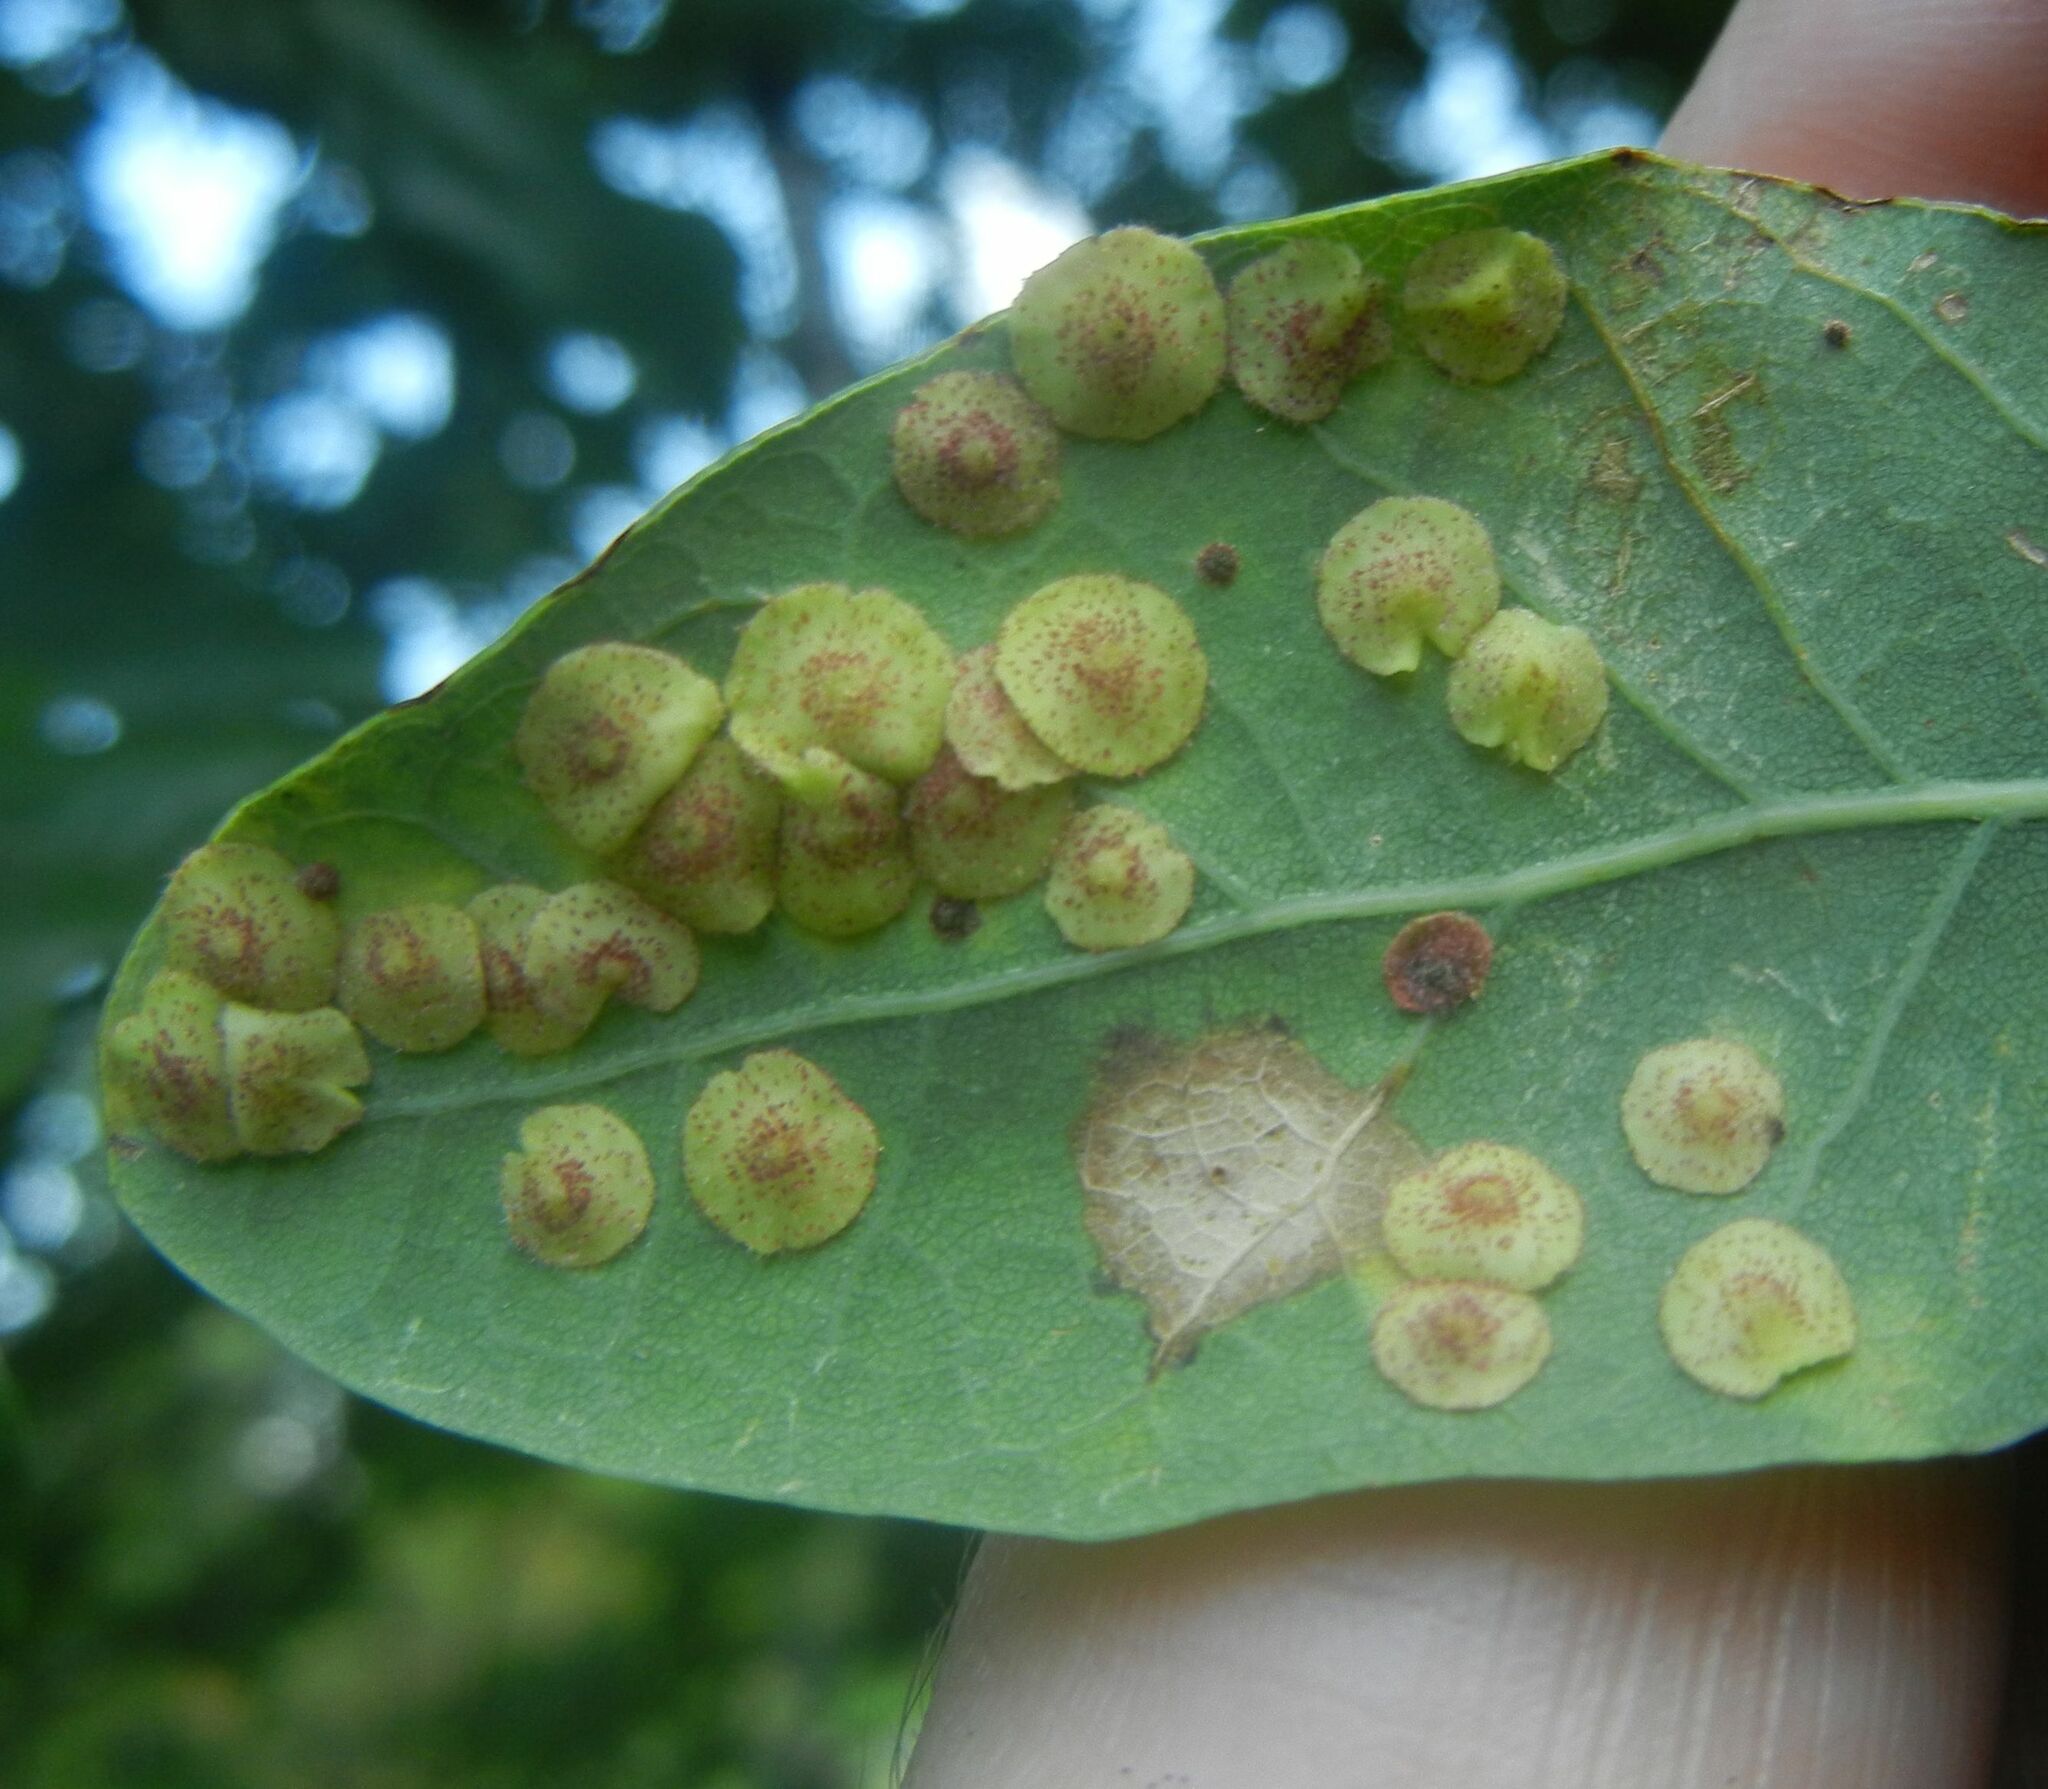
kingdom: Animalia
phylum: Arthropoda
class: Insecta
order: Hymenoptera
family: Cynipidae
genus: Neuroterus
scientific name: Neuroterus quercusbaccarum
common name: Common spangle gall
